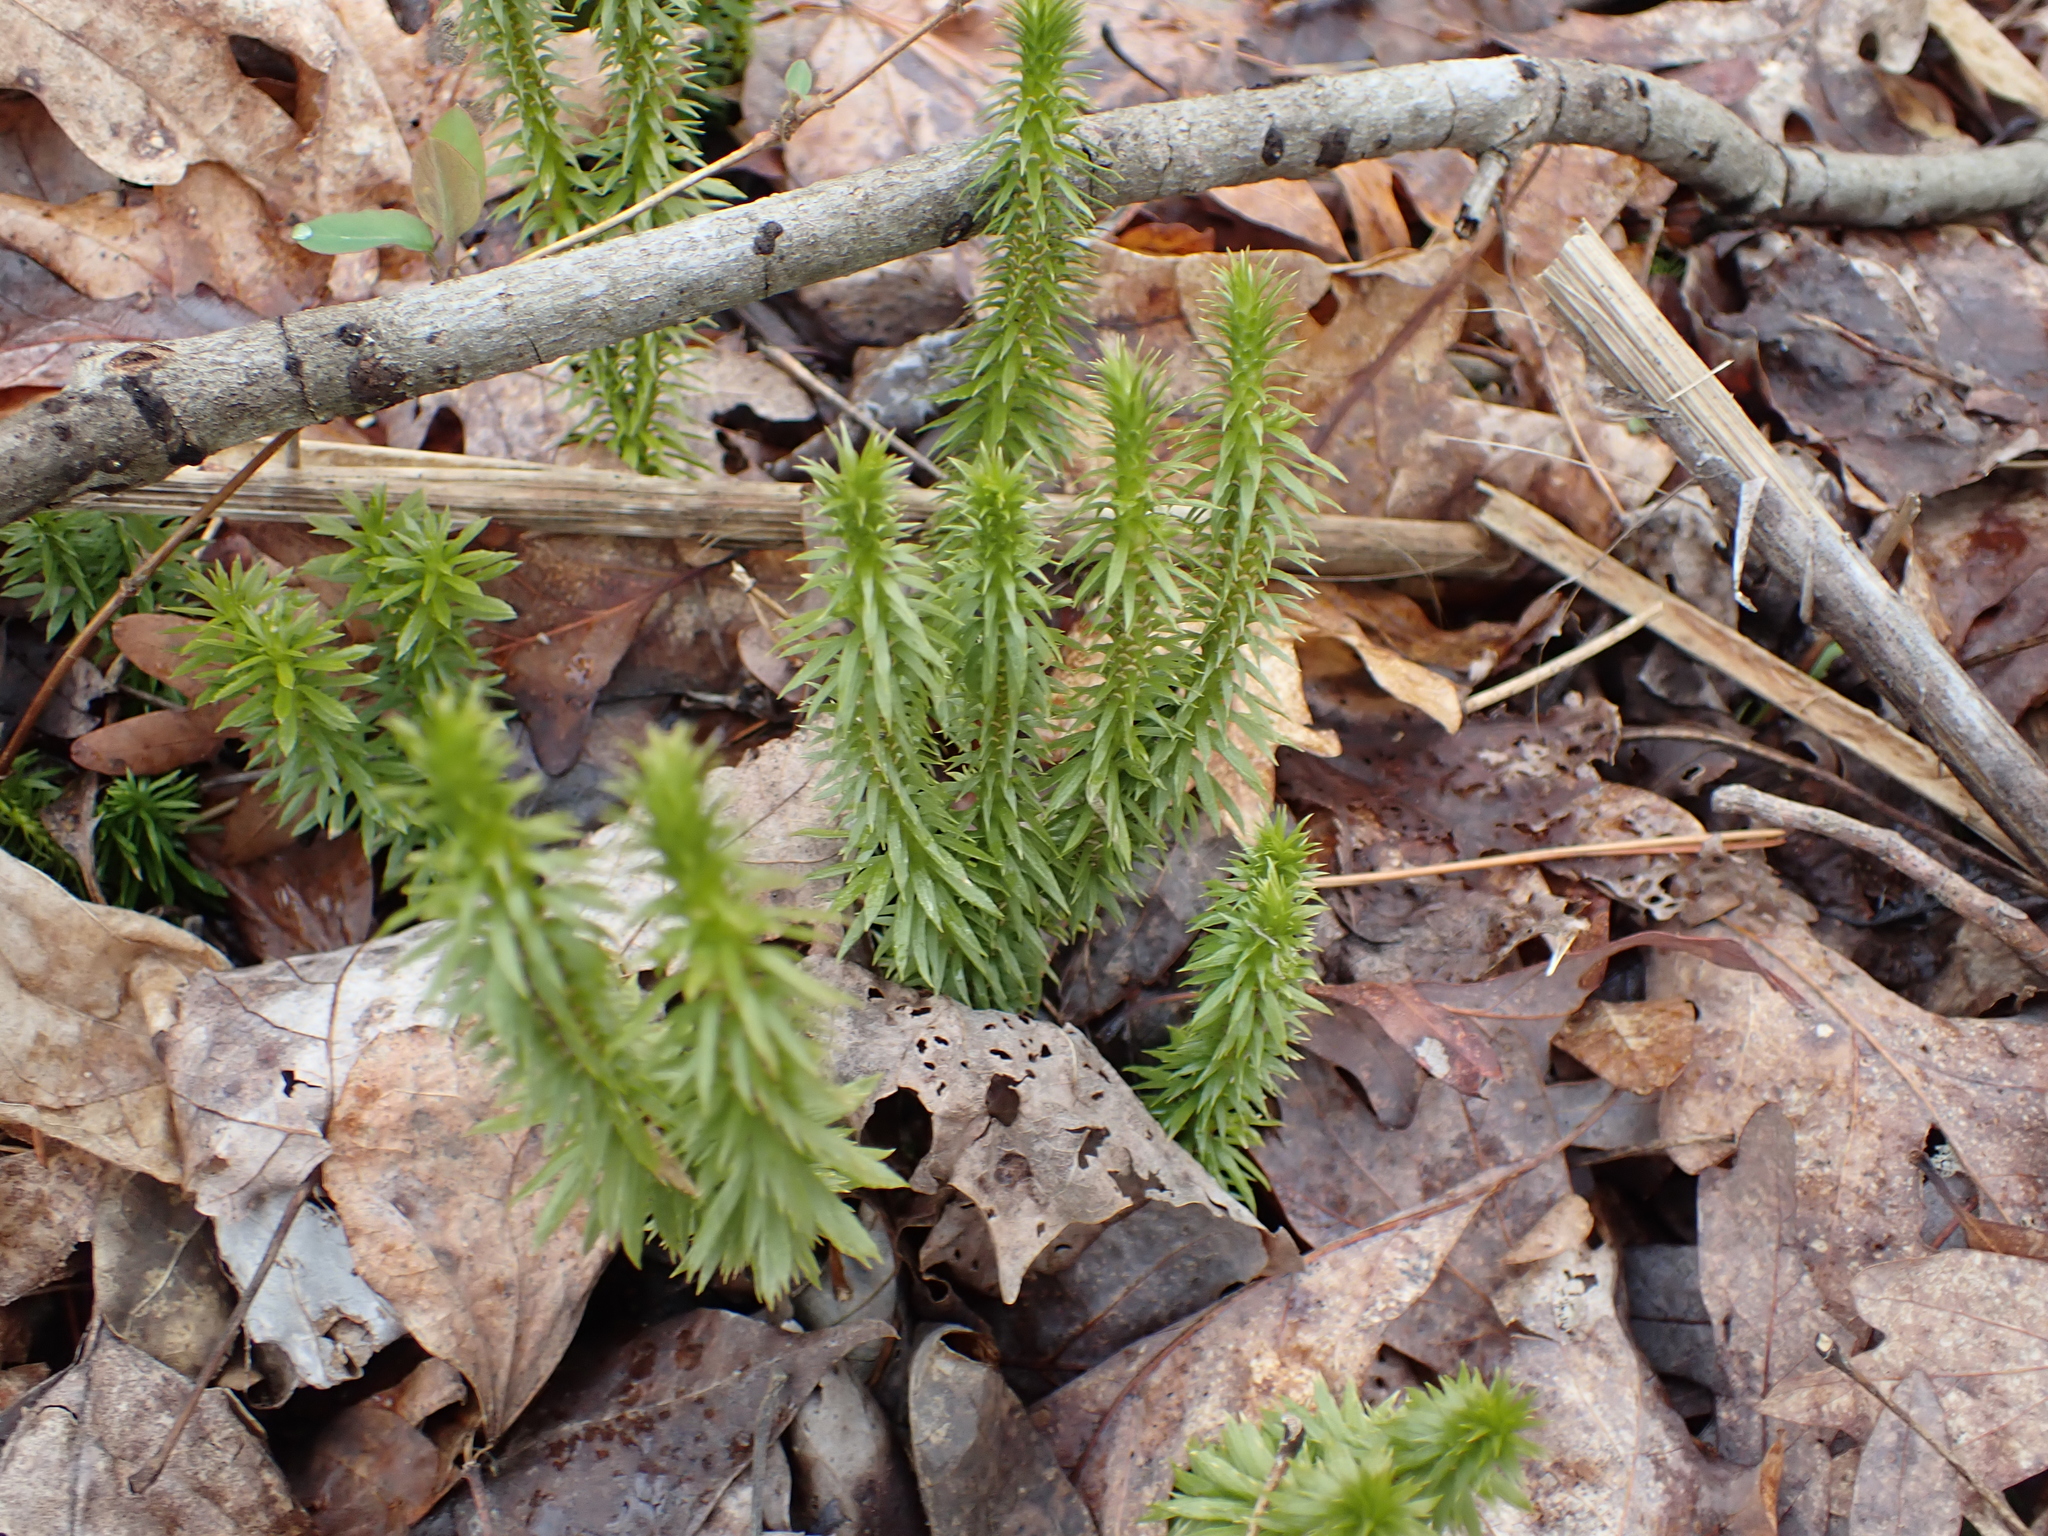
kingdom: Plantae
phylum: Tracheophyta
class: Lycopodiopsida
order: Lycopodiales
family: Lycopodiaceae
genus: Huperzia
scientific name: Huperzia lucidula
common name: Shining clubmoss
